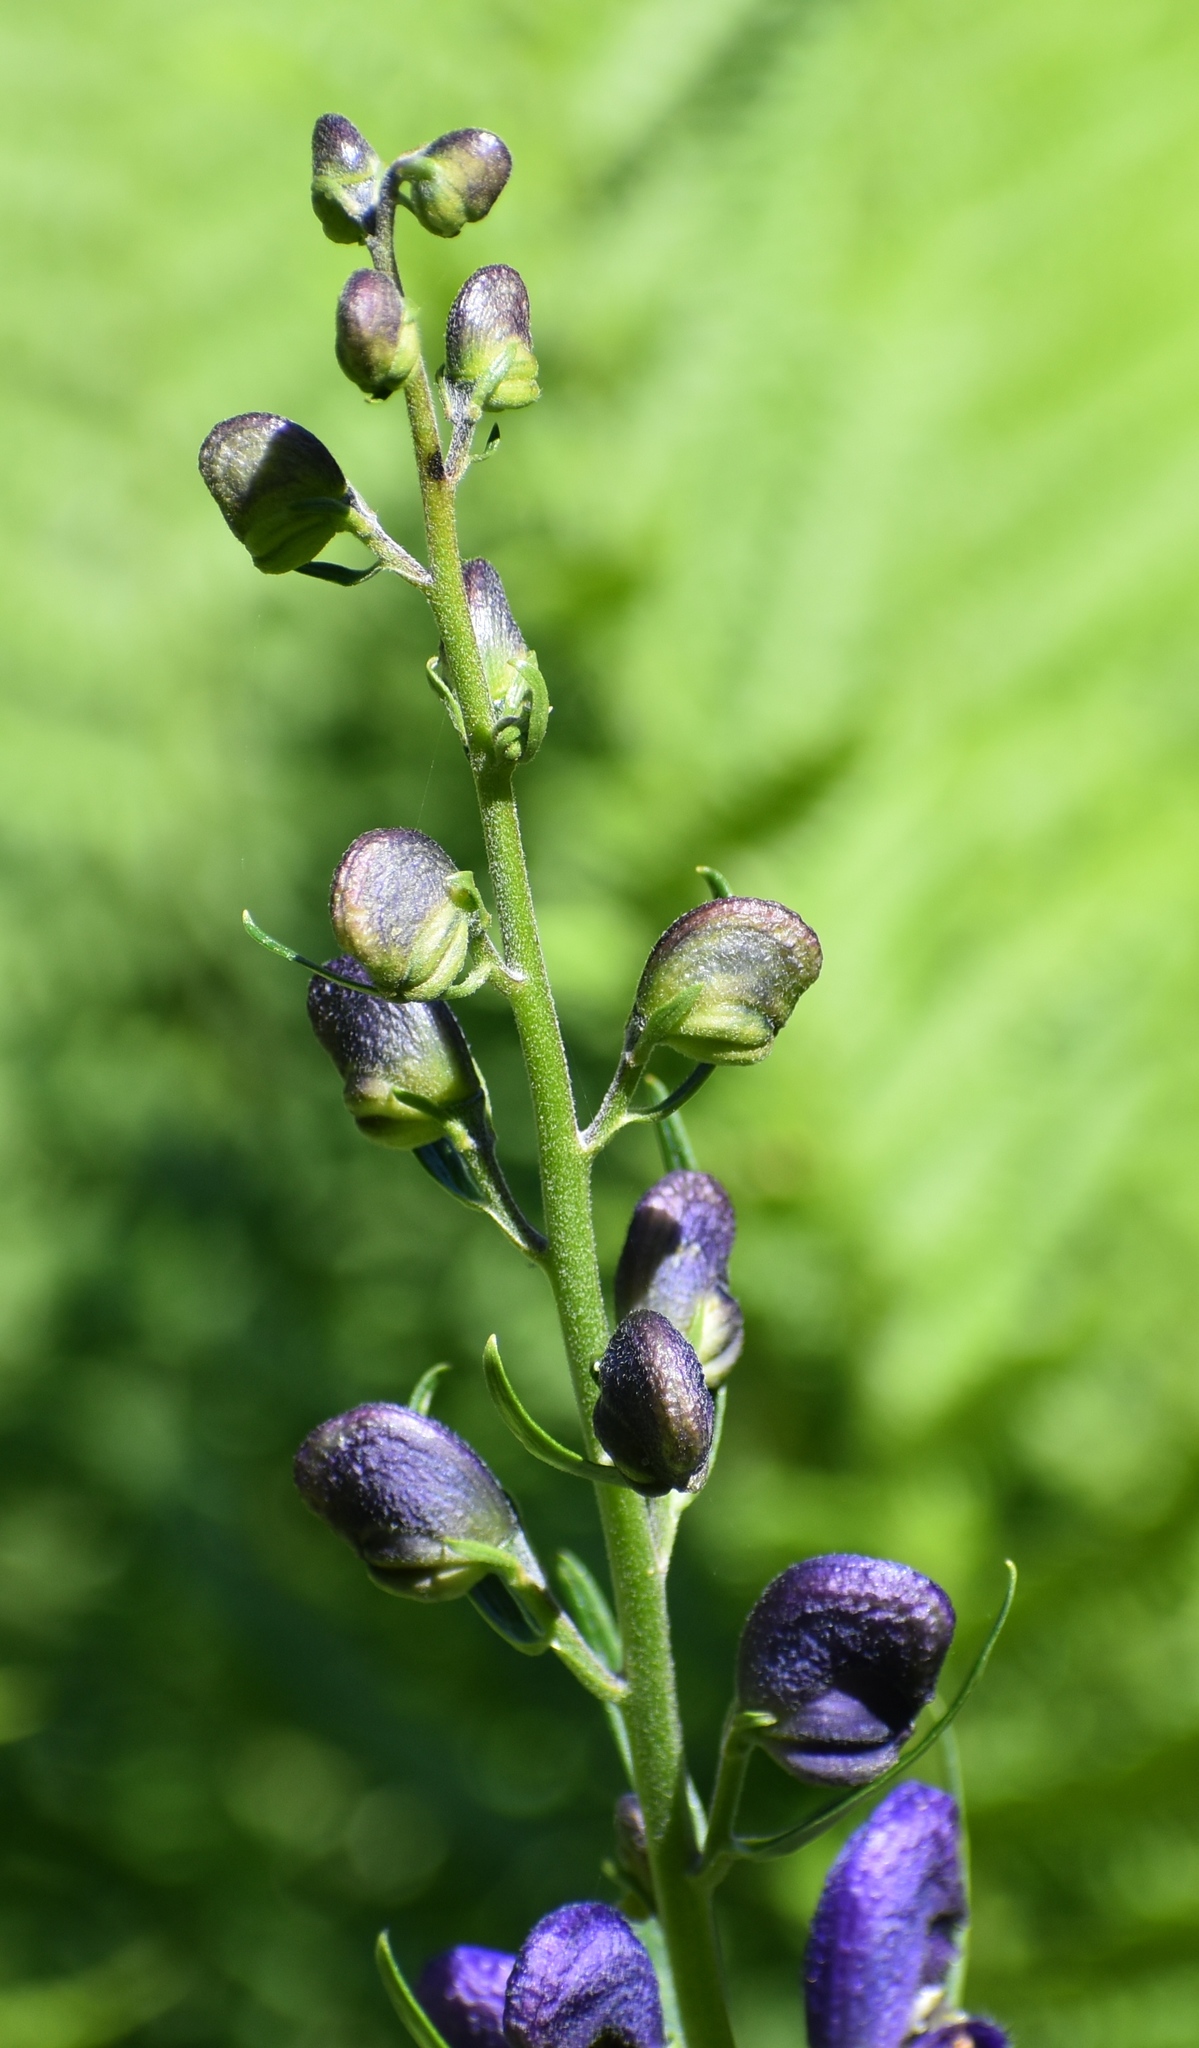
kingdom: Plantae
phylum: Tracheophyta
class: Magnoliopsida
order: Ranunculales
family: Ranunculaceae
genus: Aconitum
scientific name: Aconitum napellus
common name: Garden monkshood
